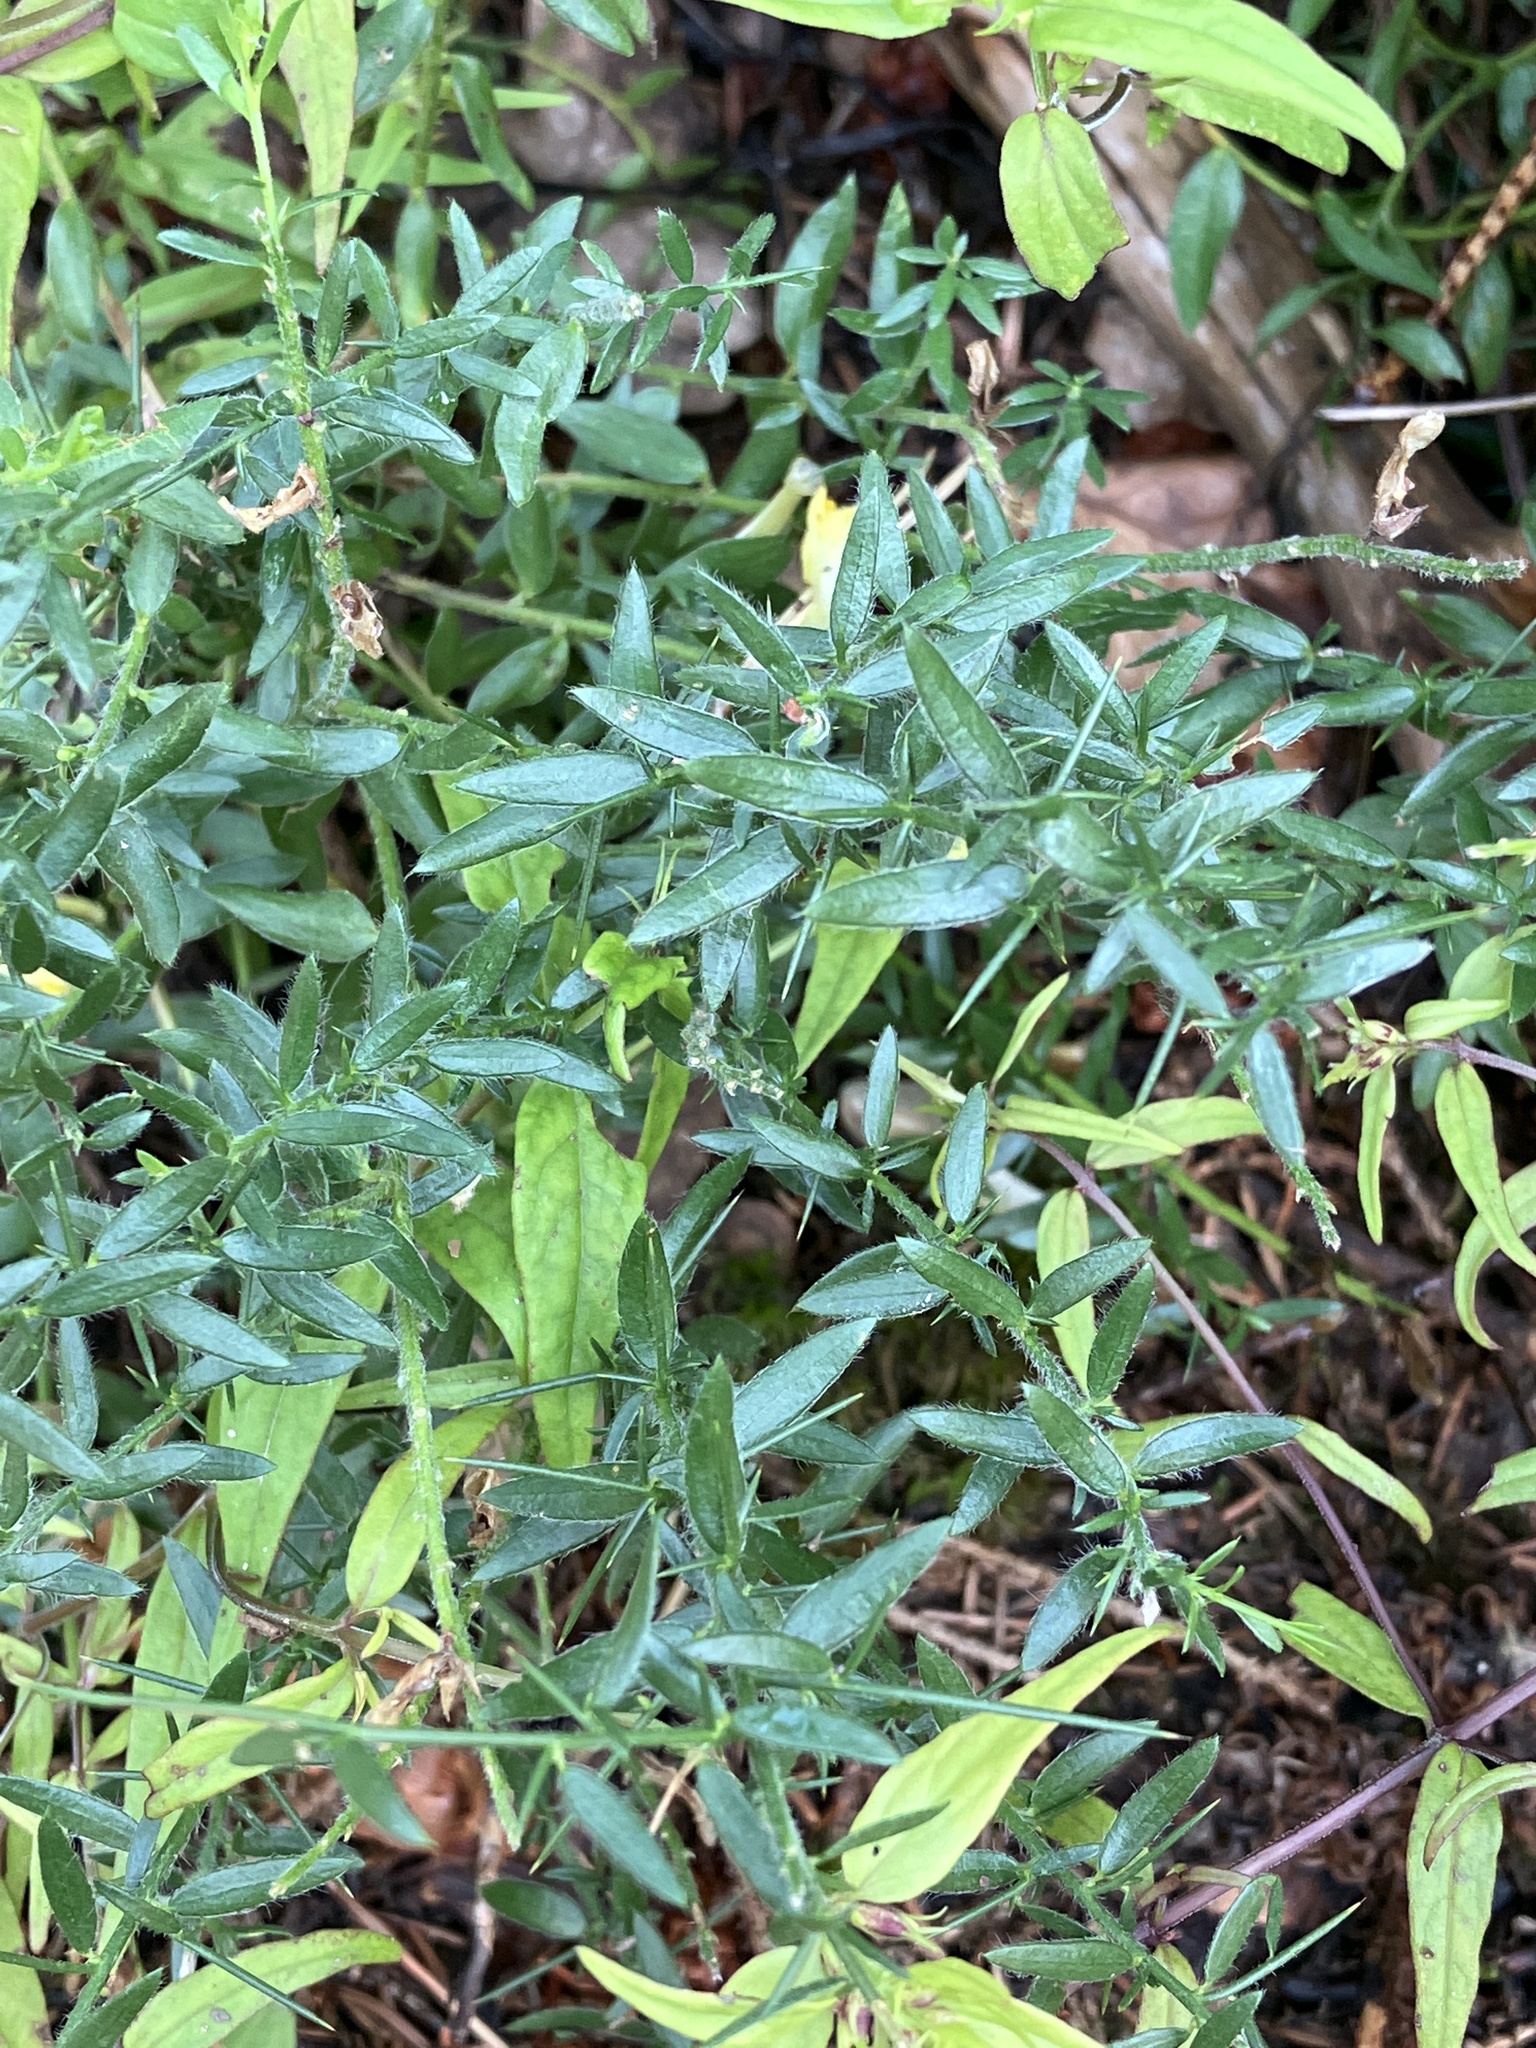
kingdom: Plantae
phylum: Tracheophyta
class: Magnoliopsida
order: Fabales
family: Fabaceae
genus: Genista
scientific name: Genista germanica
